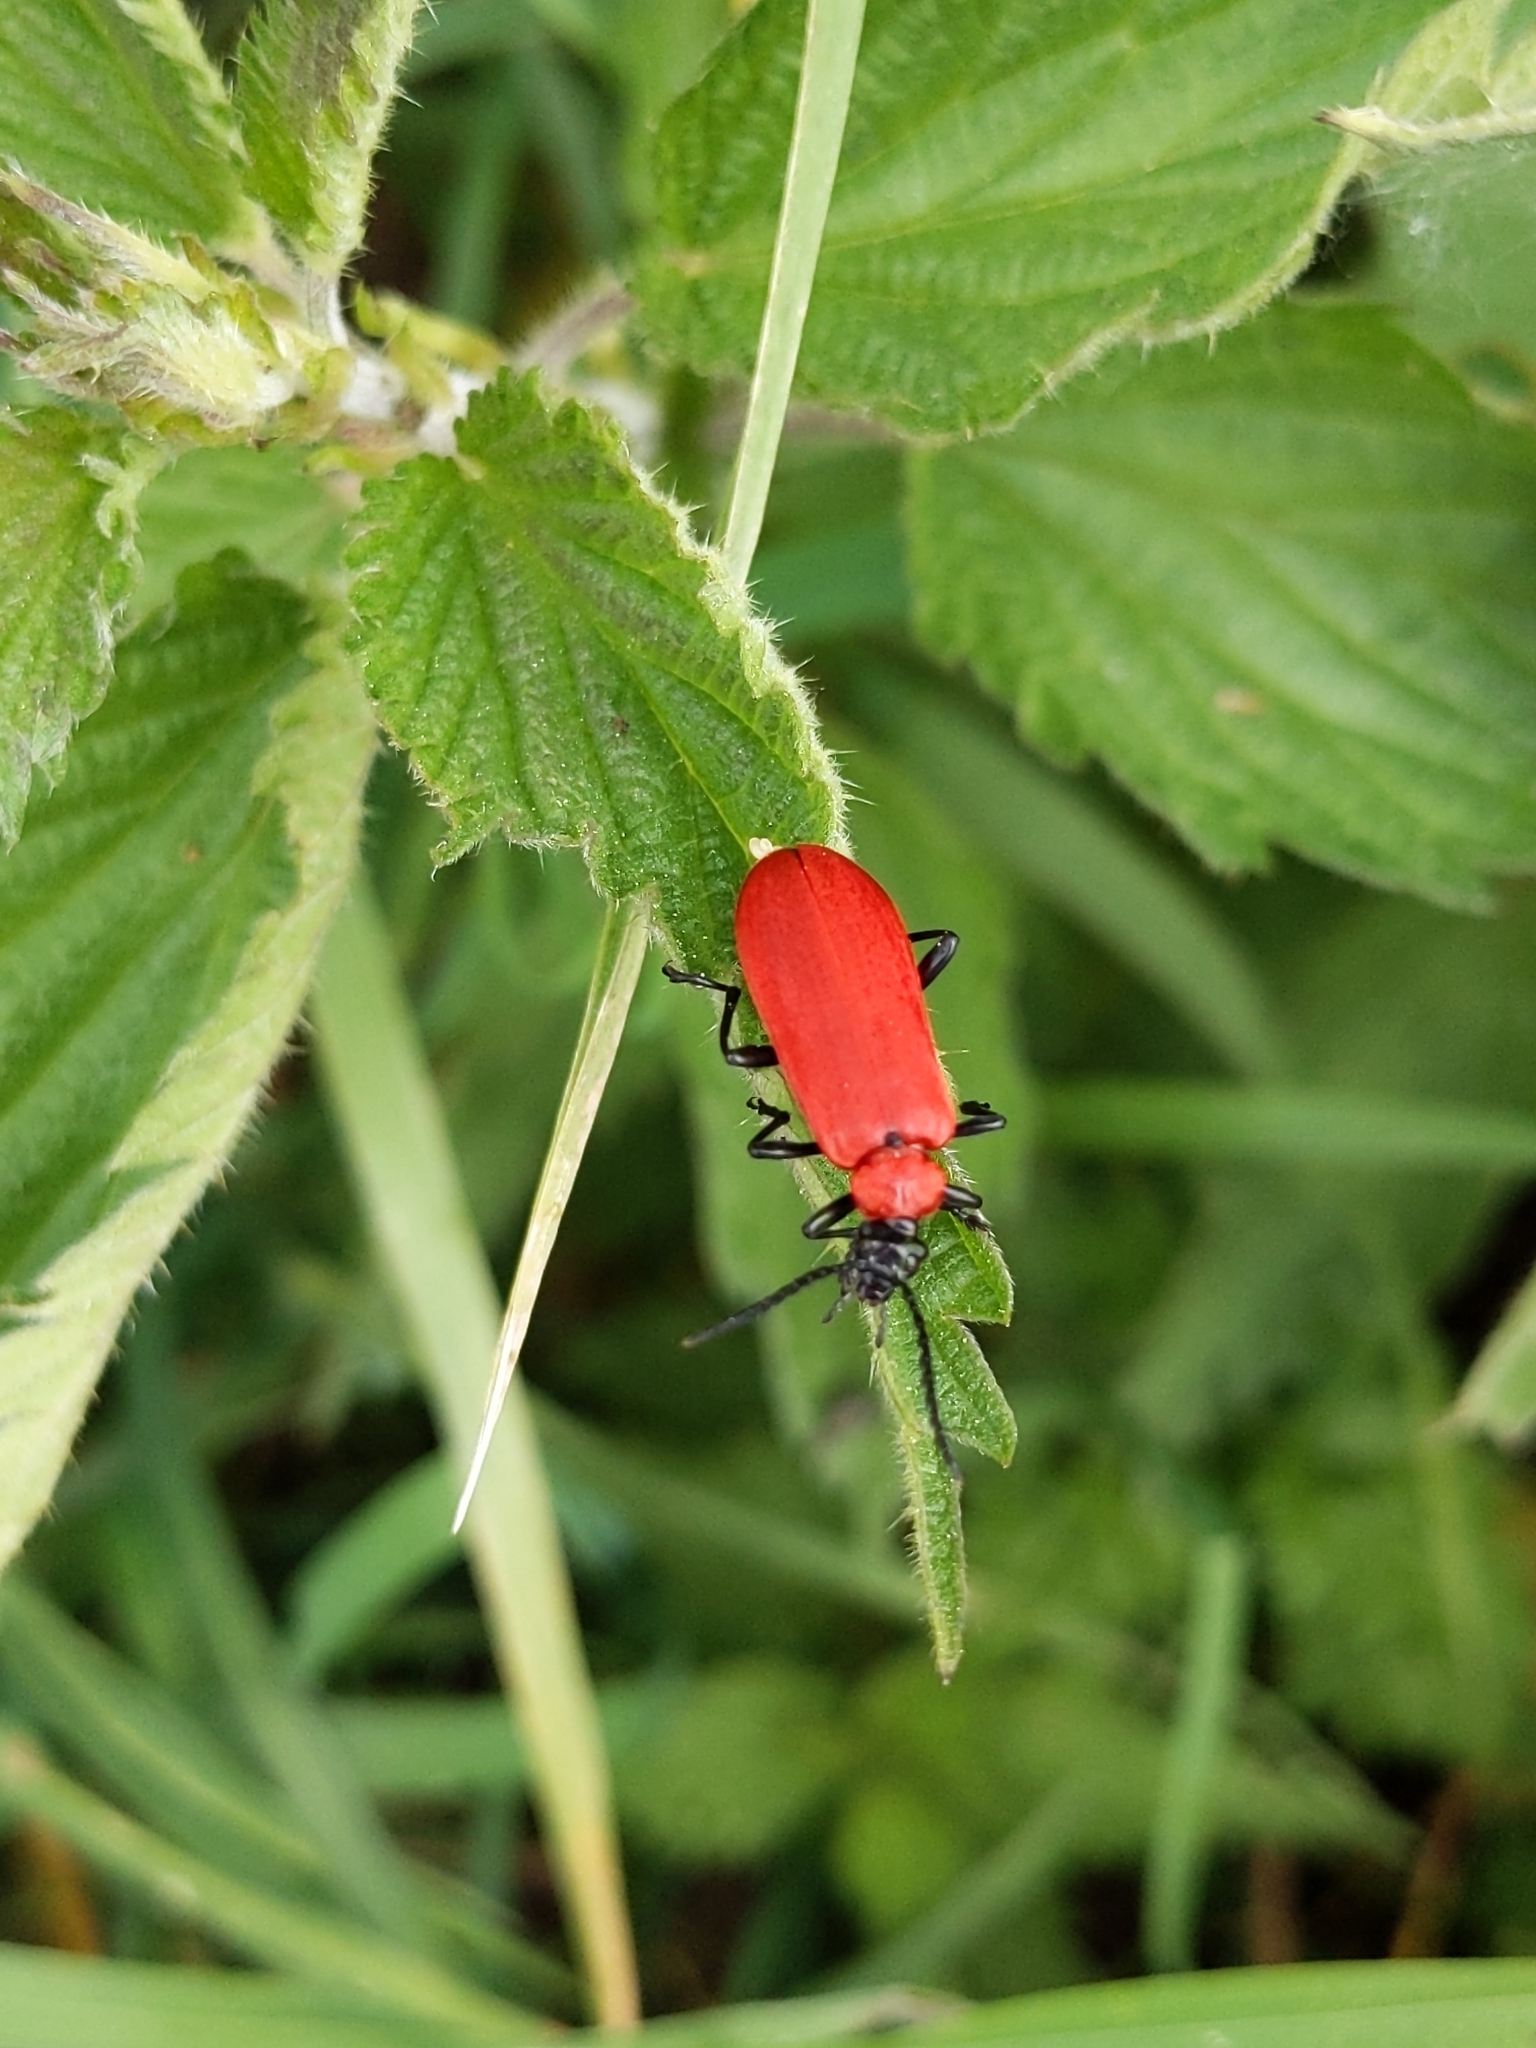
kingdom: Animalia
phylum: Arthropoda
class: Insecta
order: Coleoptera
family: Pyrochroidae
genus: Pyrochroa
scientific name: Pyrochroa coccinea
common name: Black-headed cardinal beetle
